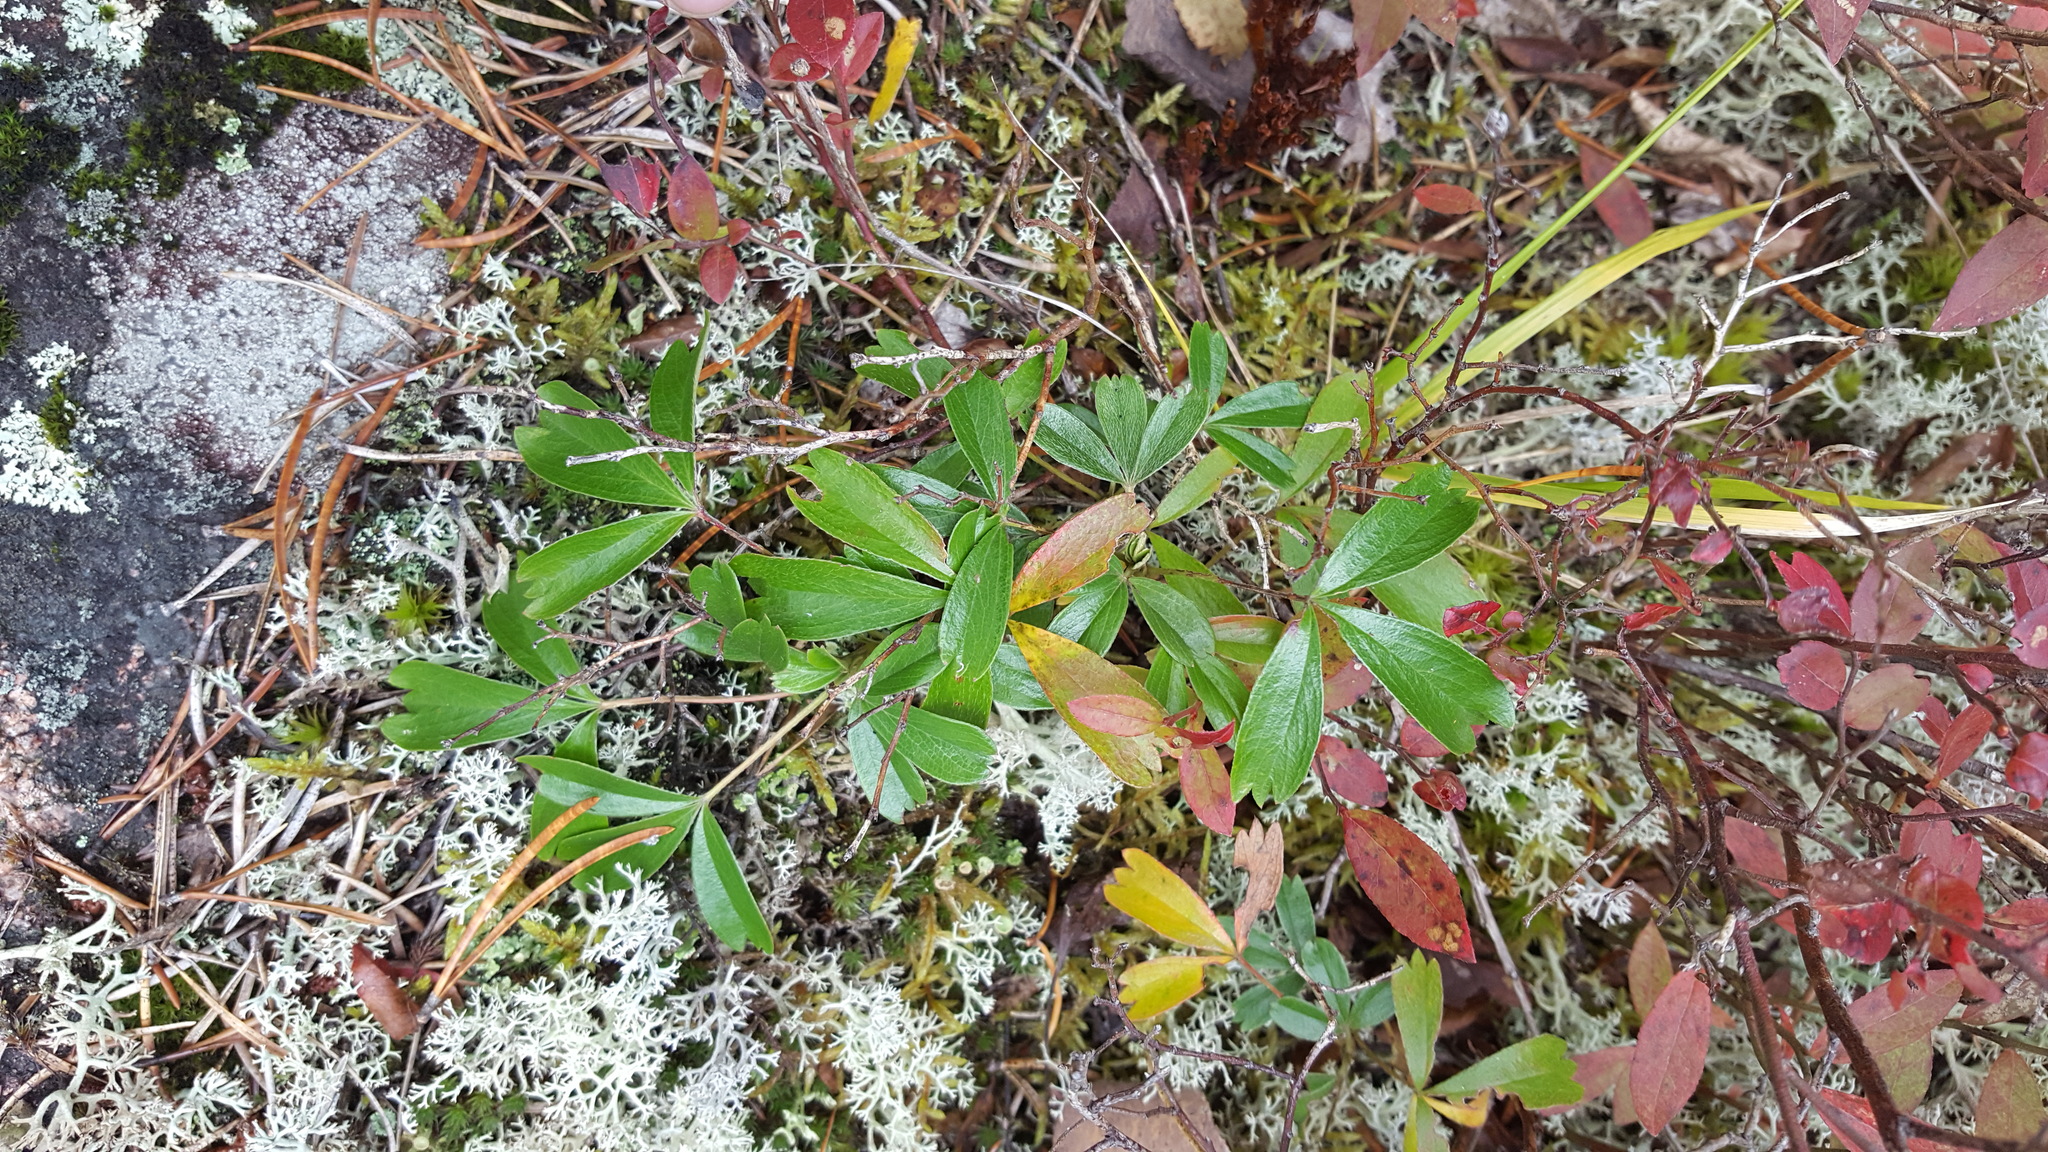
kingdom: Plantae
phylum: Tracheophyta
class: Magnoliopsida
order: Rosales
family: Rosaceae
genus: Sibbaldia
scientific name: Sibbaldia tridentata
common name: Three-toothed cinquefoil
